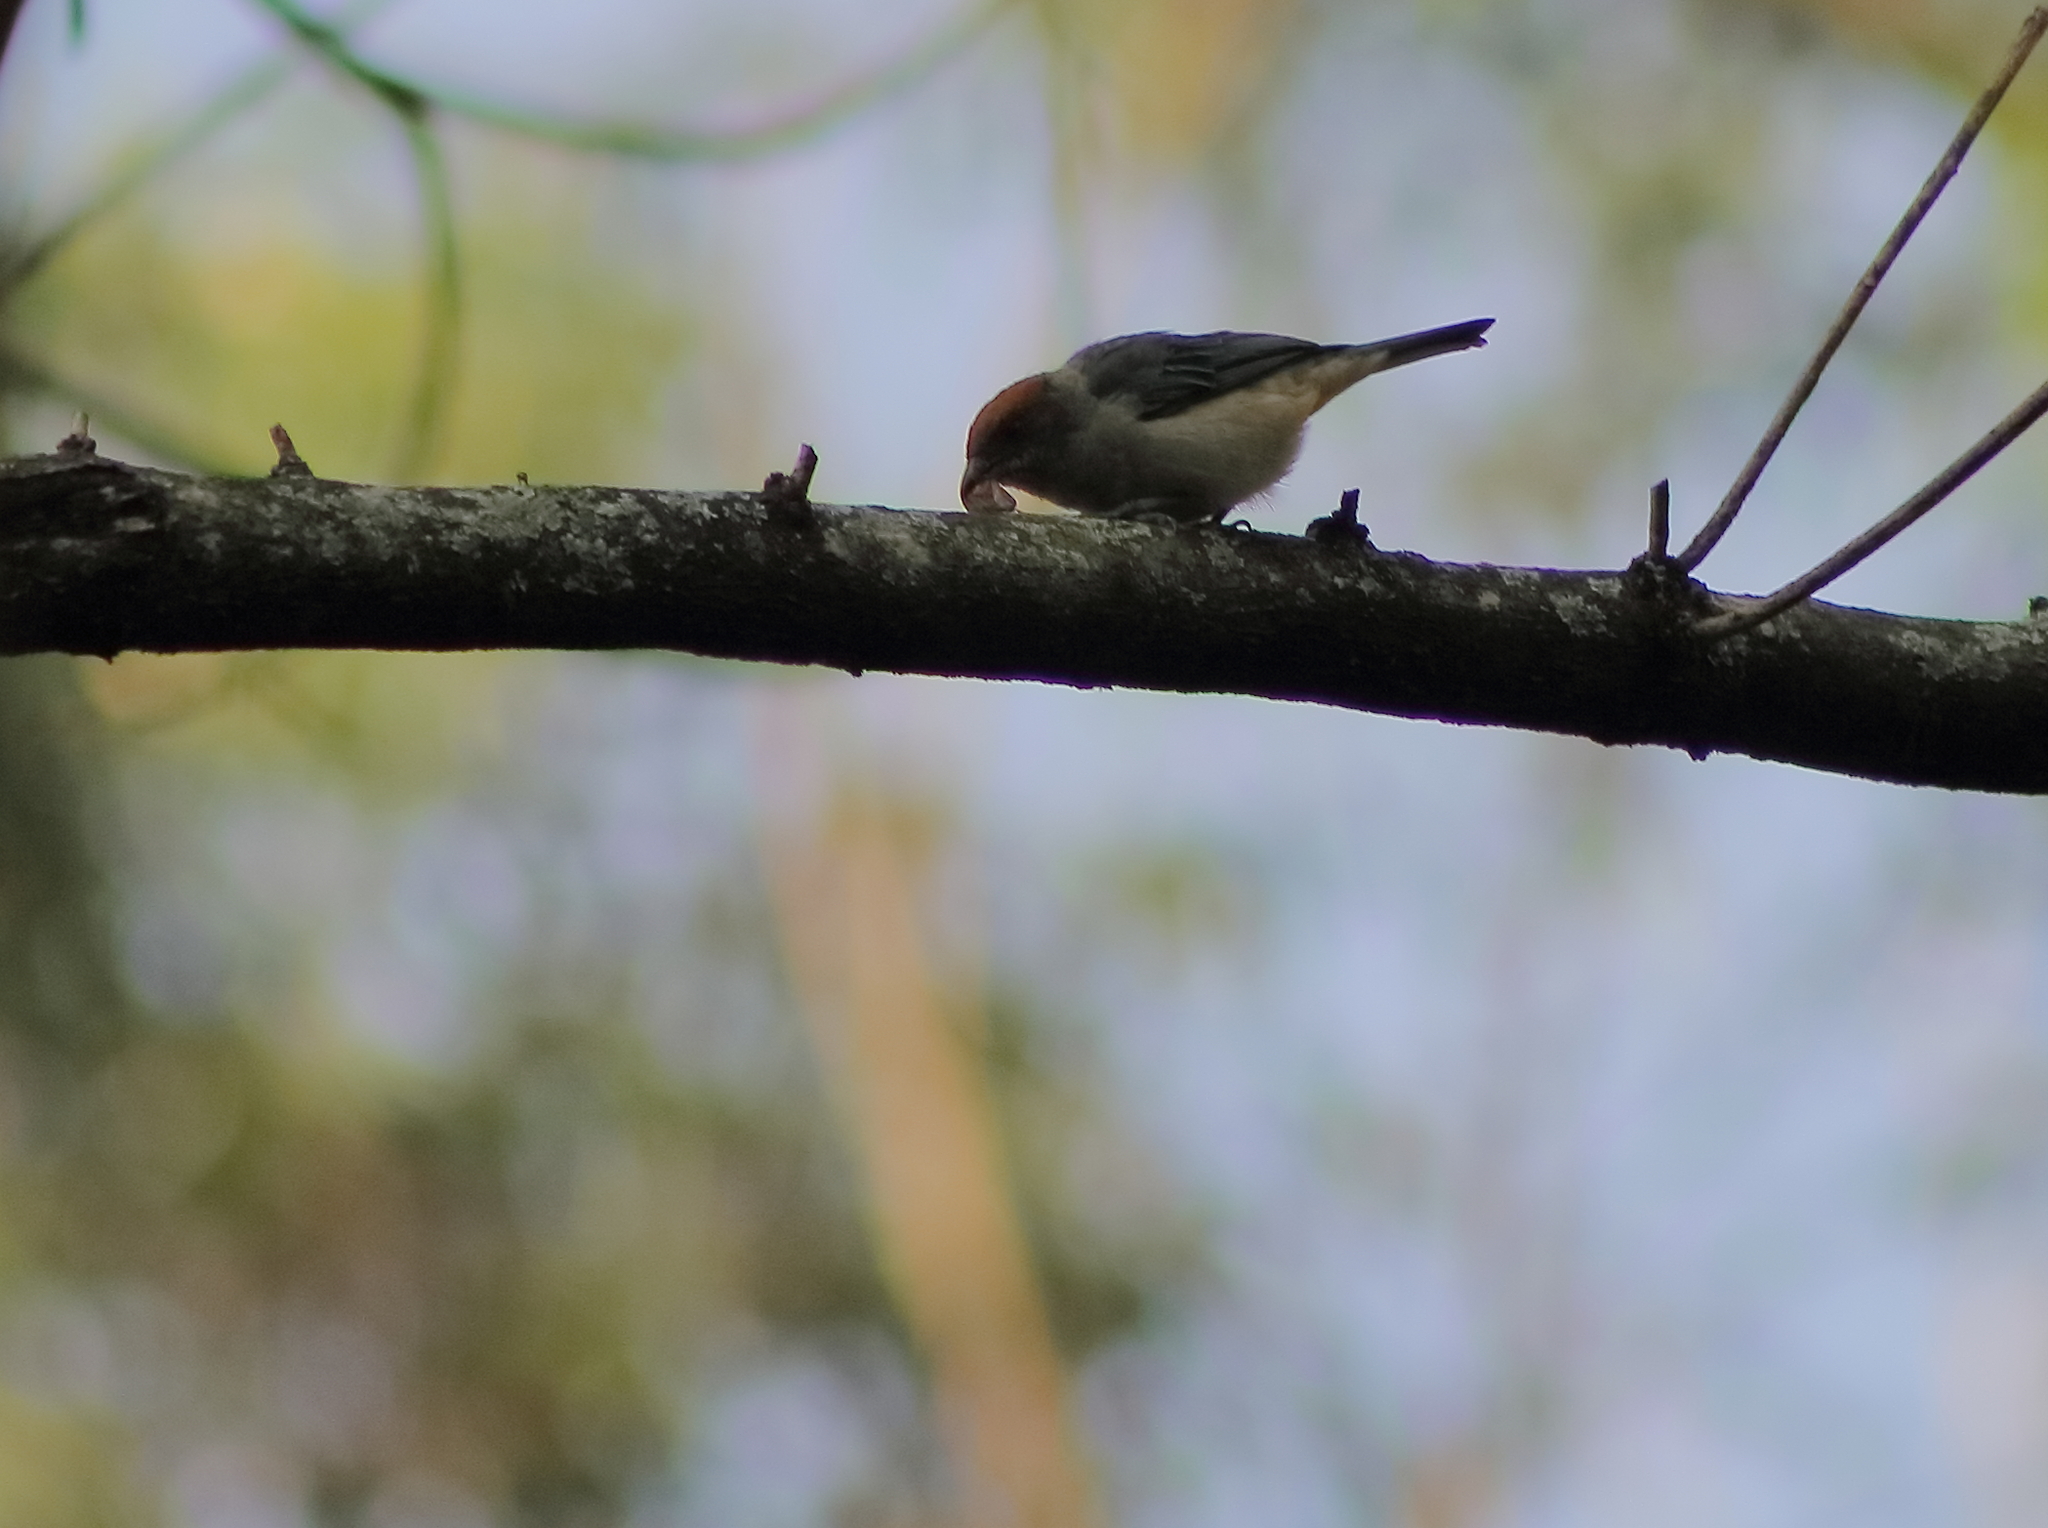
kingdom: Animalia
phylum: Chordata
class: Aves
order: Passeriformes
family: Thraupidae
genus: Stilpnia
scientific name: Stilpnia vitriolina
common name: Scrub tanager
